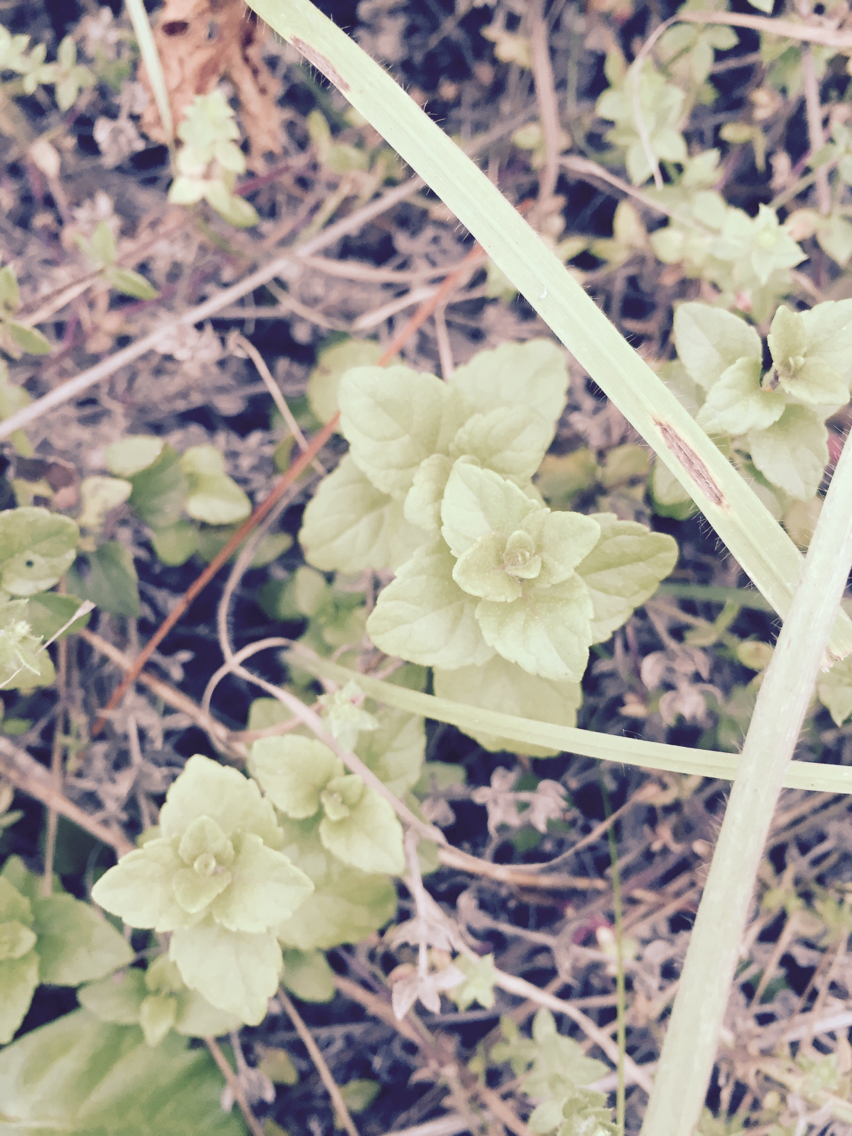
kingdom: Plantae
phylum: Tracheophyta
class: Magnoliopsida
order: Lamiales
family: Lamiaceae
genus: Micromeria
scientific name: Micromeria douglasii
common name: Yerba buena
